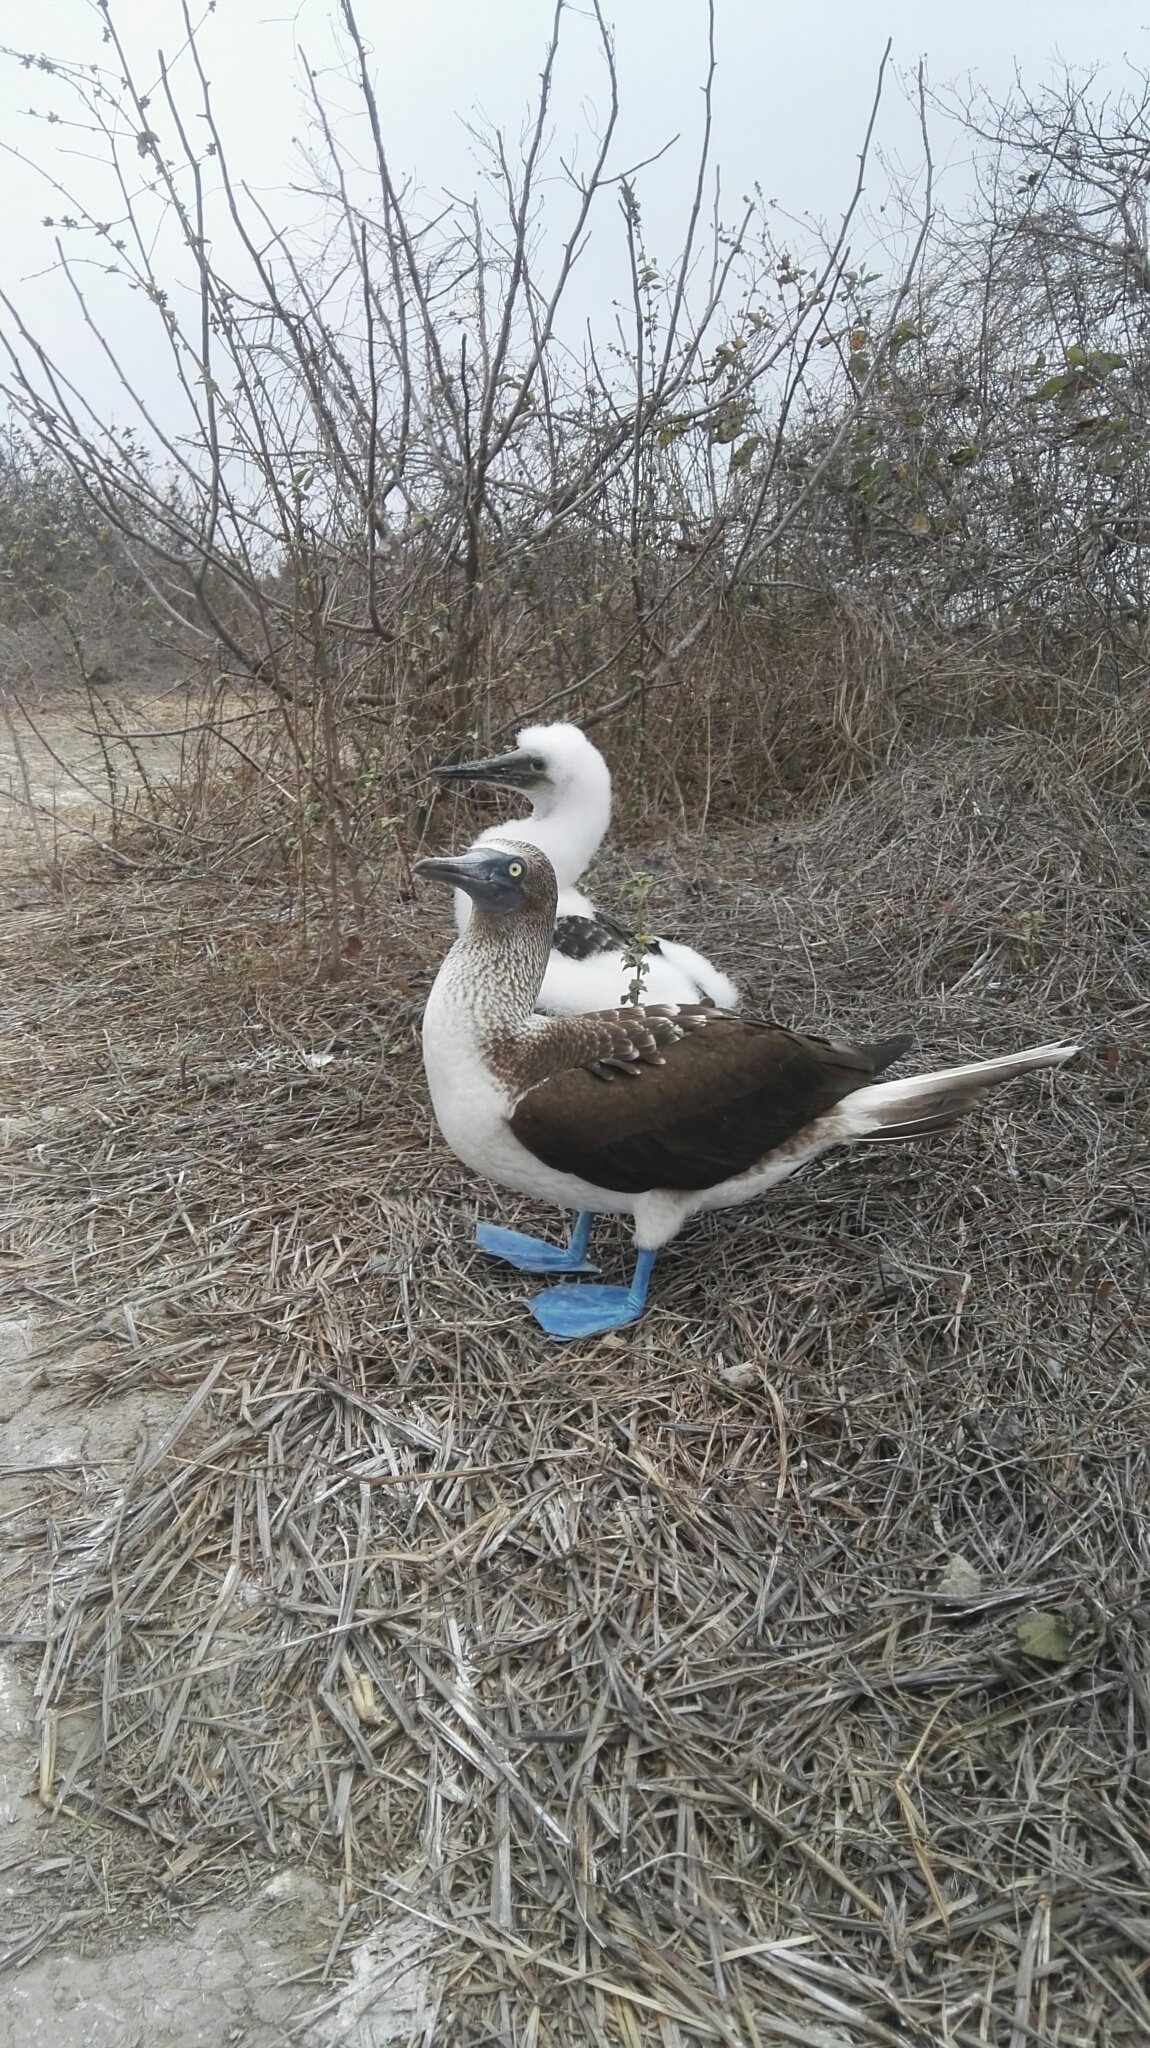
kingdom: Animalia
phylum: Chordata
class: Aves
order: Suliformes
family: Sulidae
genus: Sula
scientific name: Sula nebouxii
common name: Blue-footed booby
